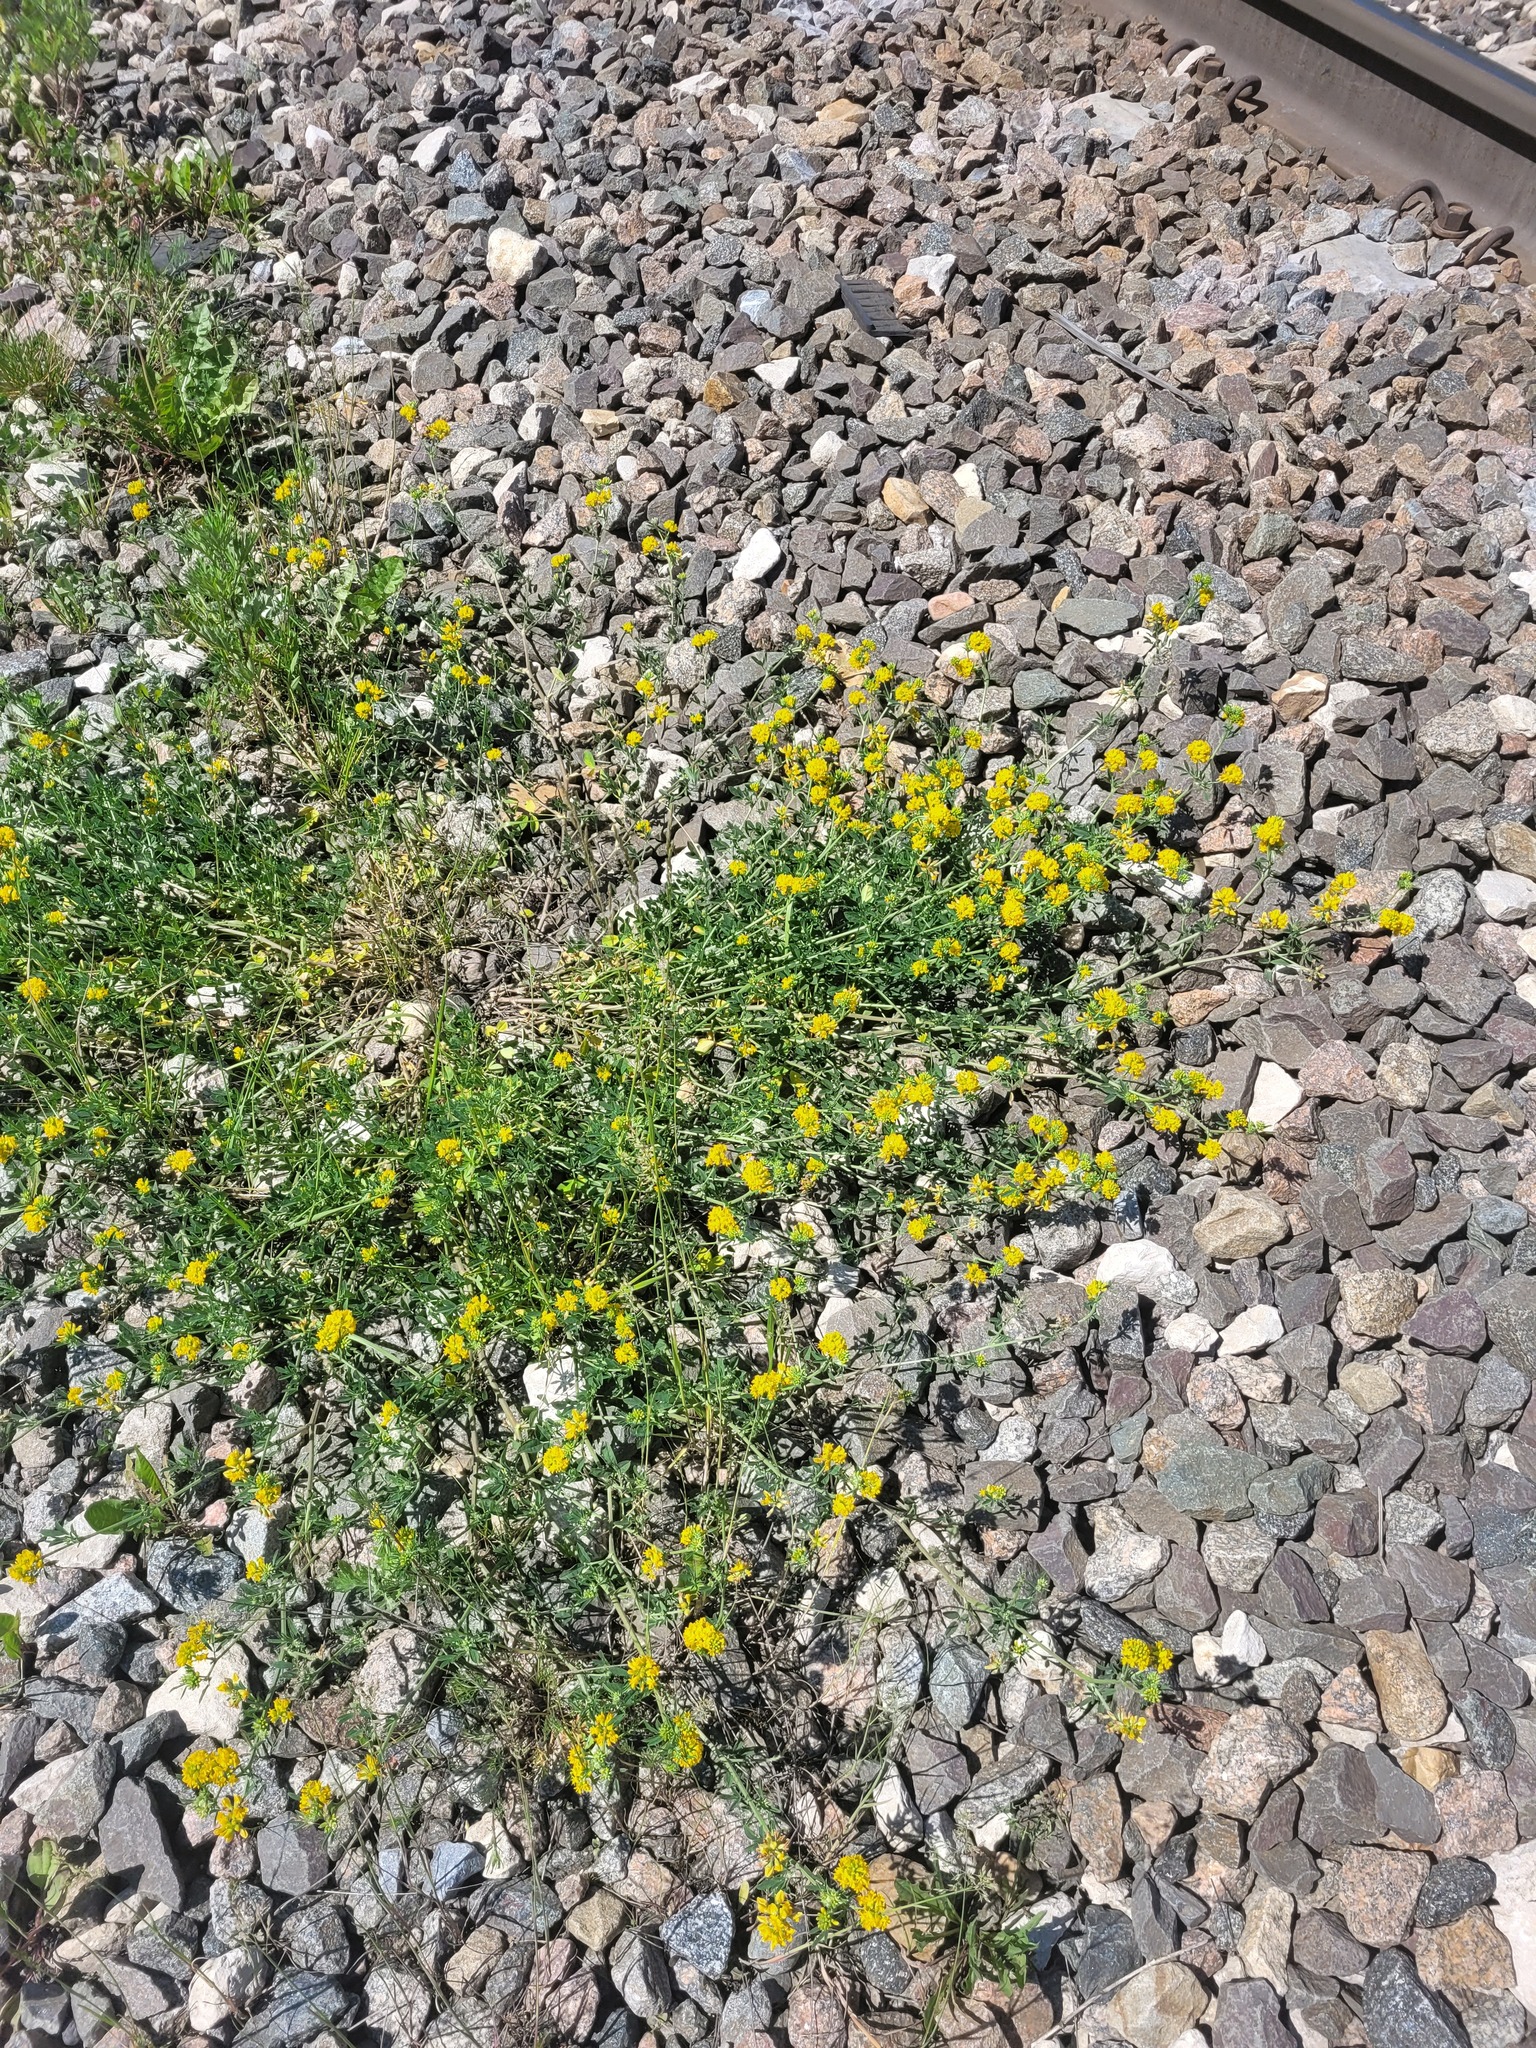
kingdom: Plantae
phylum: Tracheophyta
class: Magnoliopsida
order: Fabales
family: Fabaceae
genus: Medicago
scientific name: Medicago falcata
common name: Sickle medick
